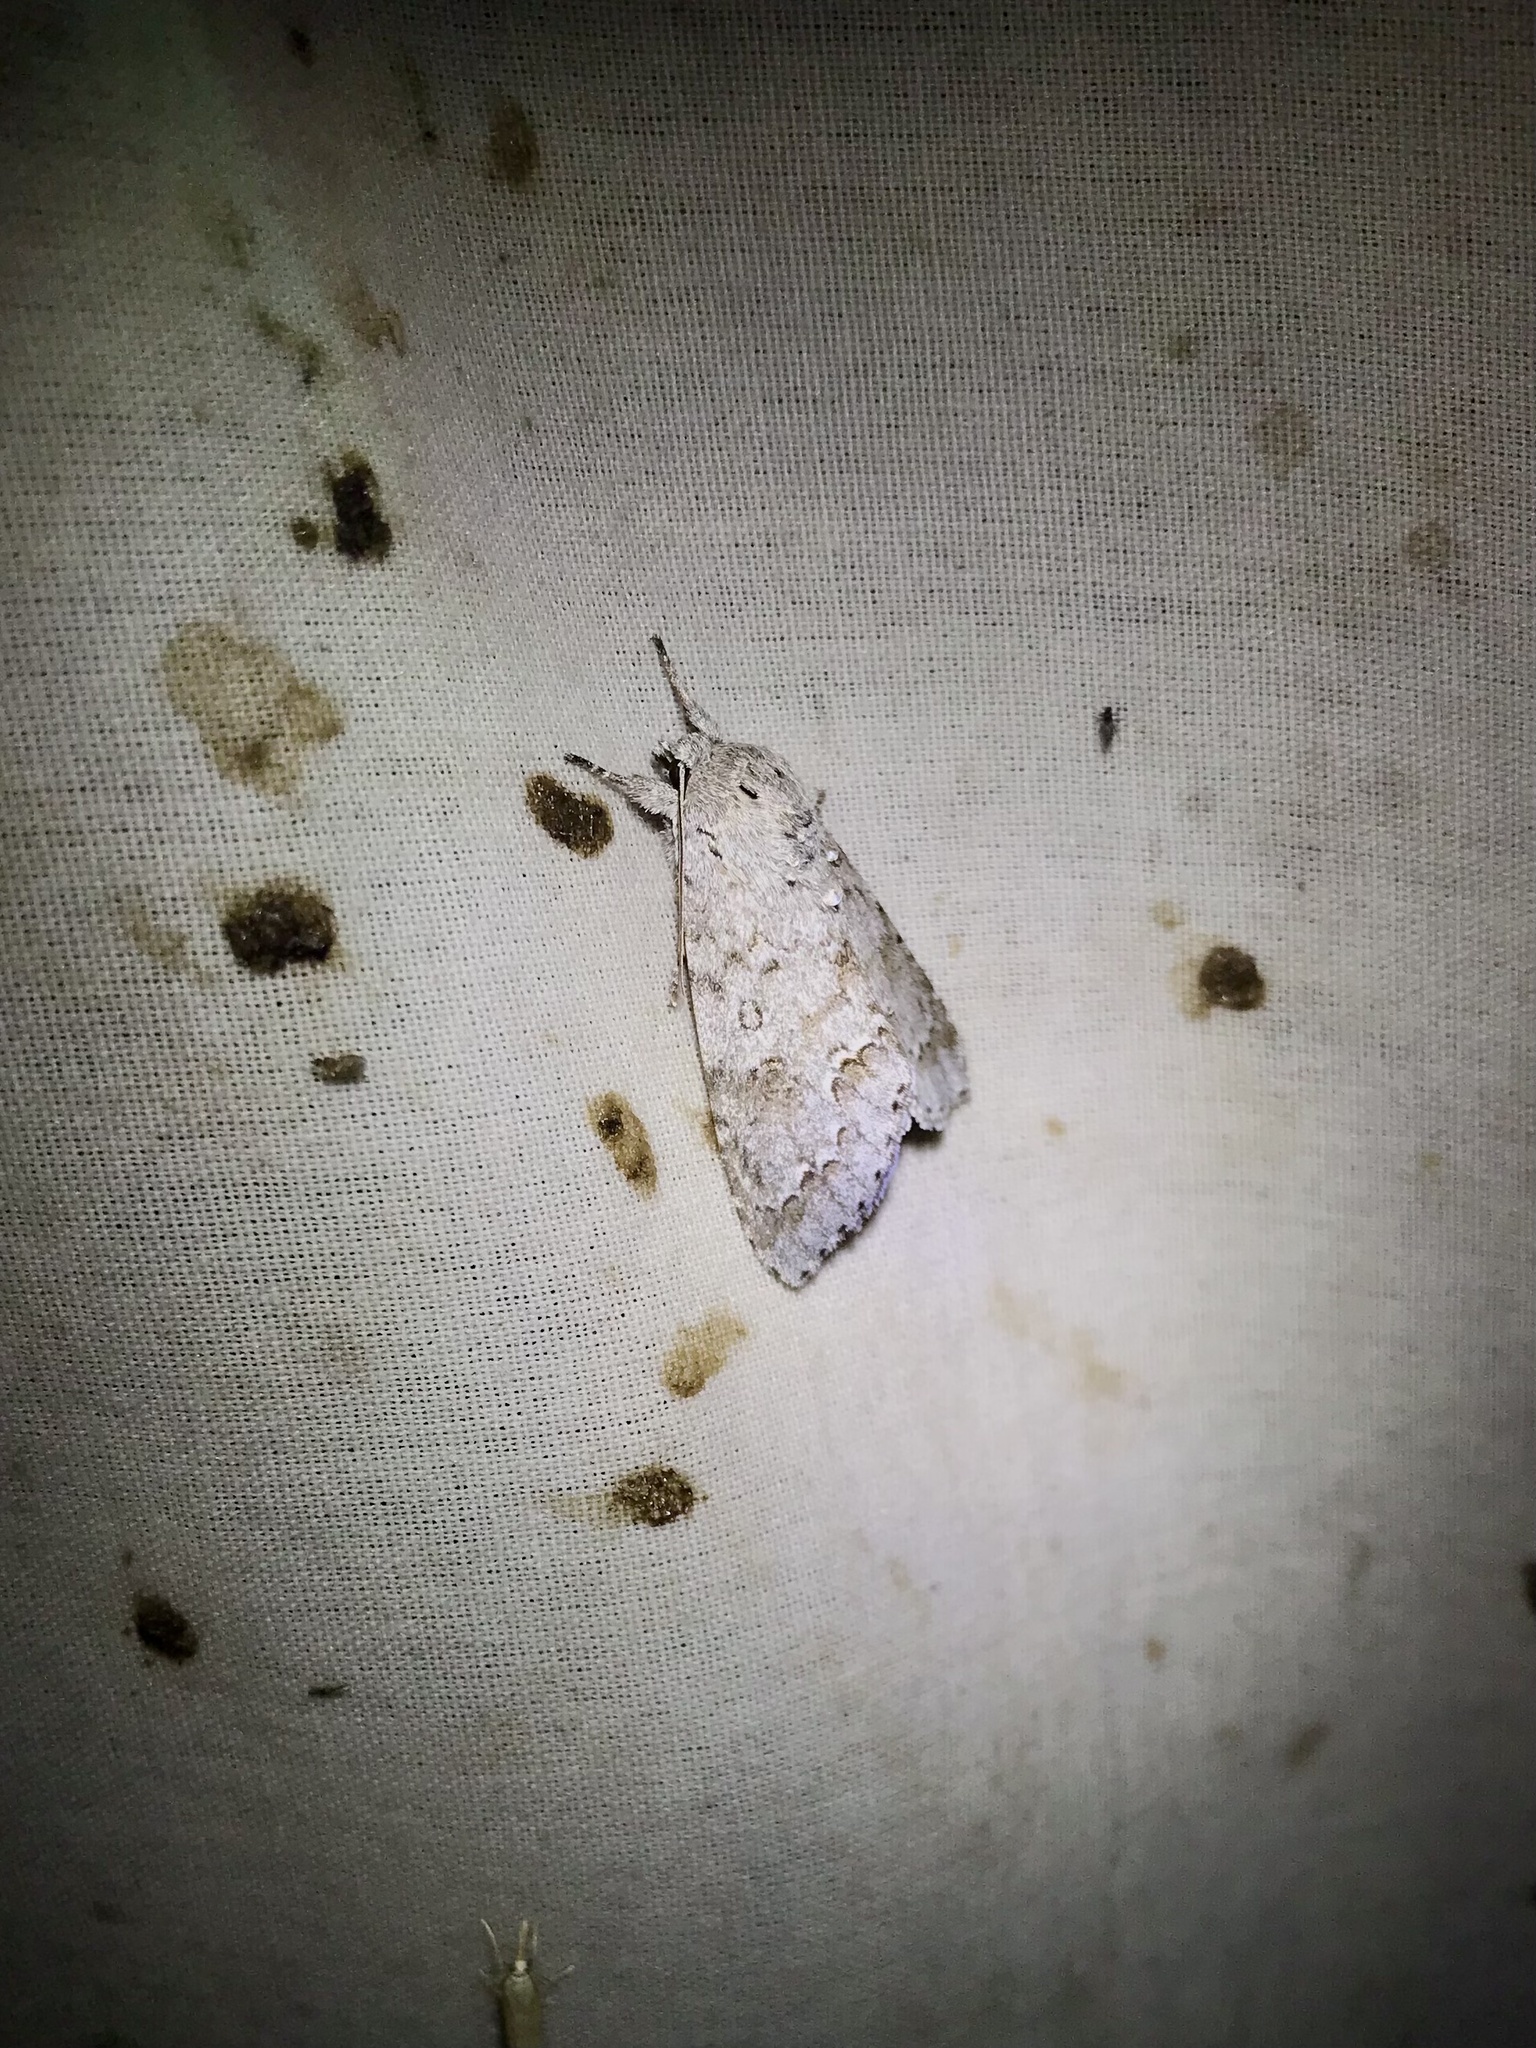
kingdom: Animalia
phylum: Arthropoda
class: Insecta
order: Lepidoptera
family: Noctuidae
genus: Acronicta
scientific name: Acronicta insita
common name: Large gray dagger
